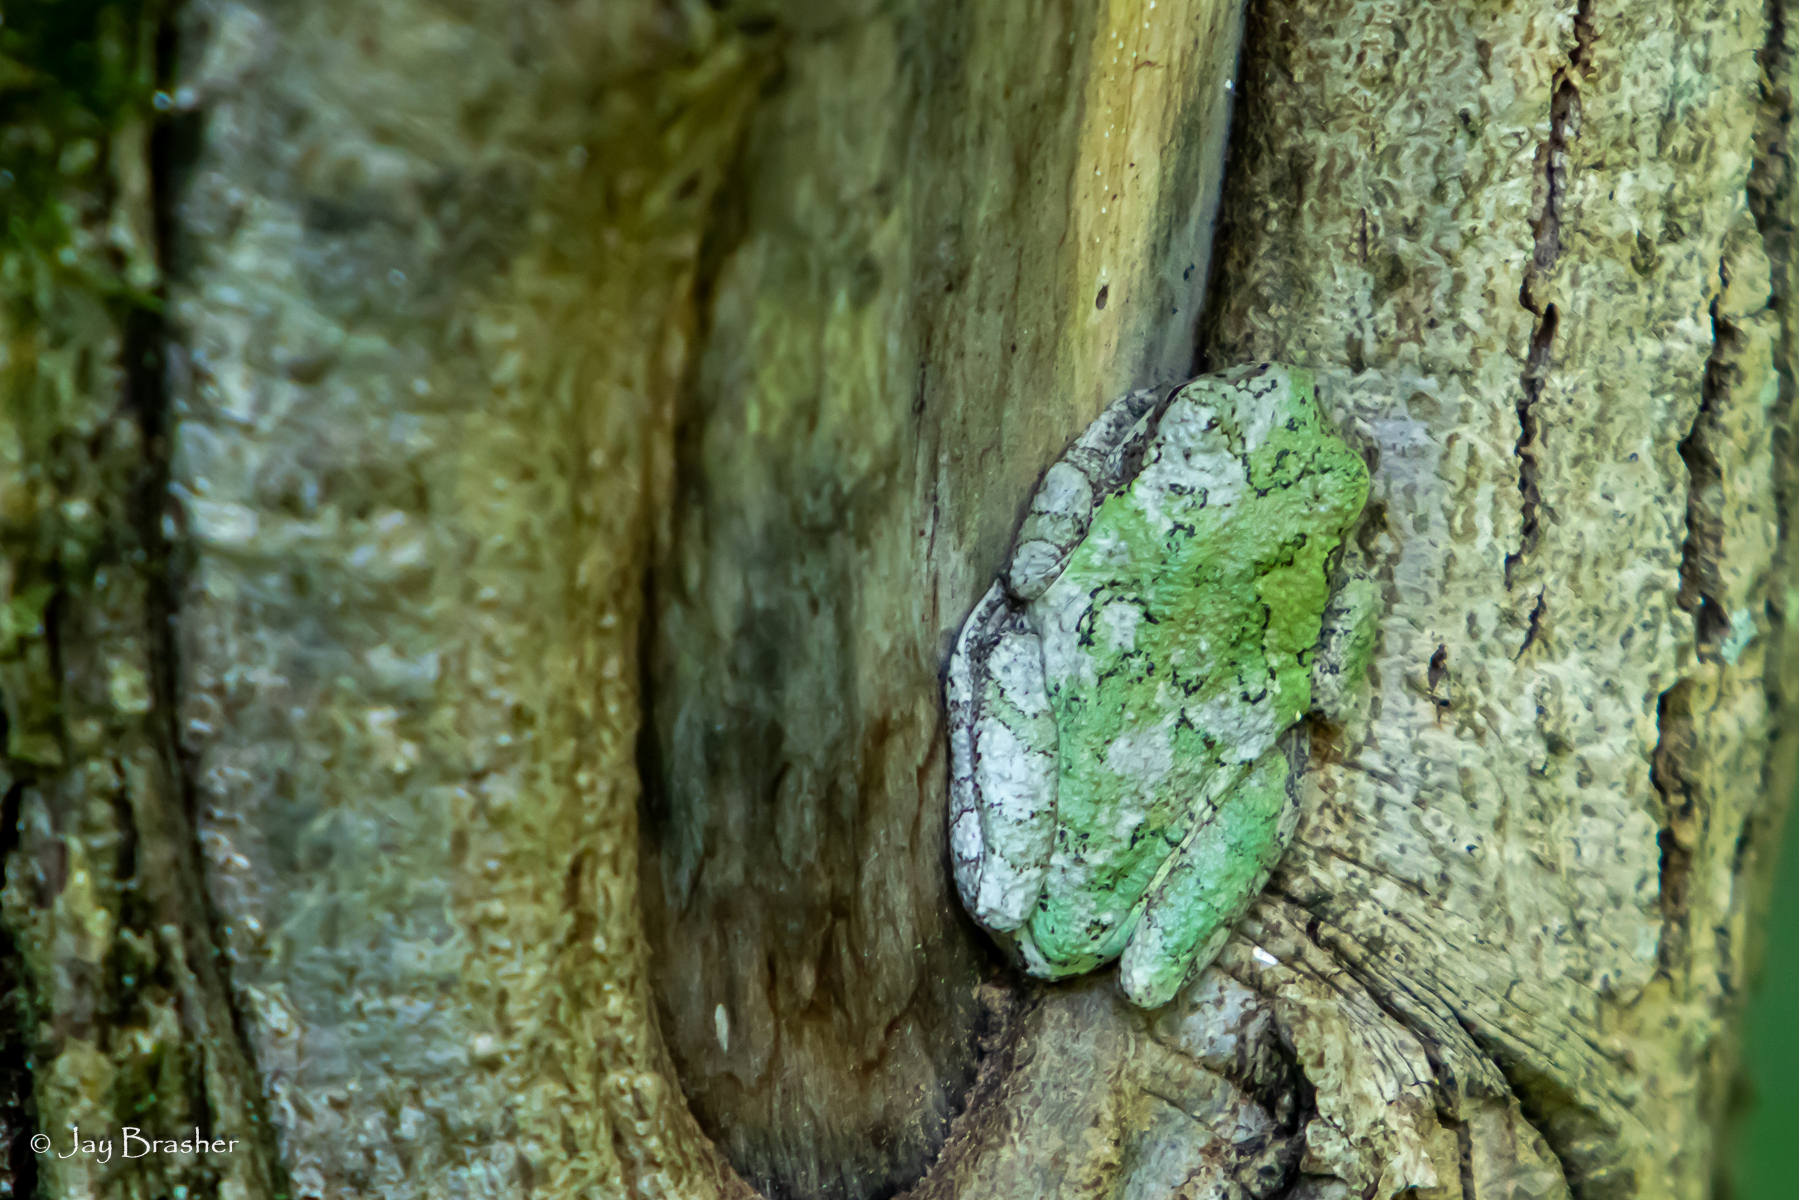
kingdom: Animalia
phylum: Chordata
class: Amphibia
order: Anura
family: Hylidae
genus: Dryophytes
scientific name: Dryophytes chrysoscelis
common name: Cope's gray treefrog
